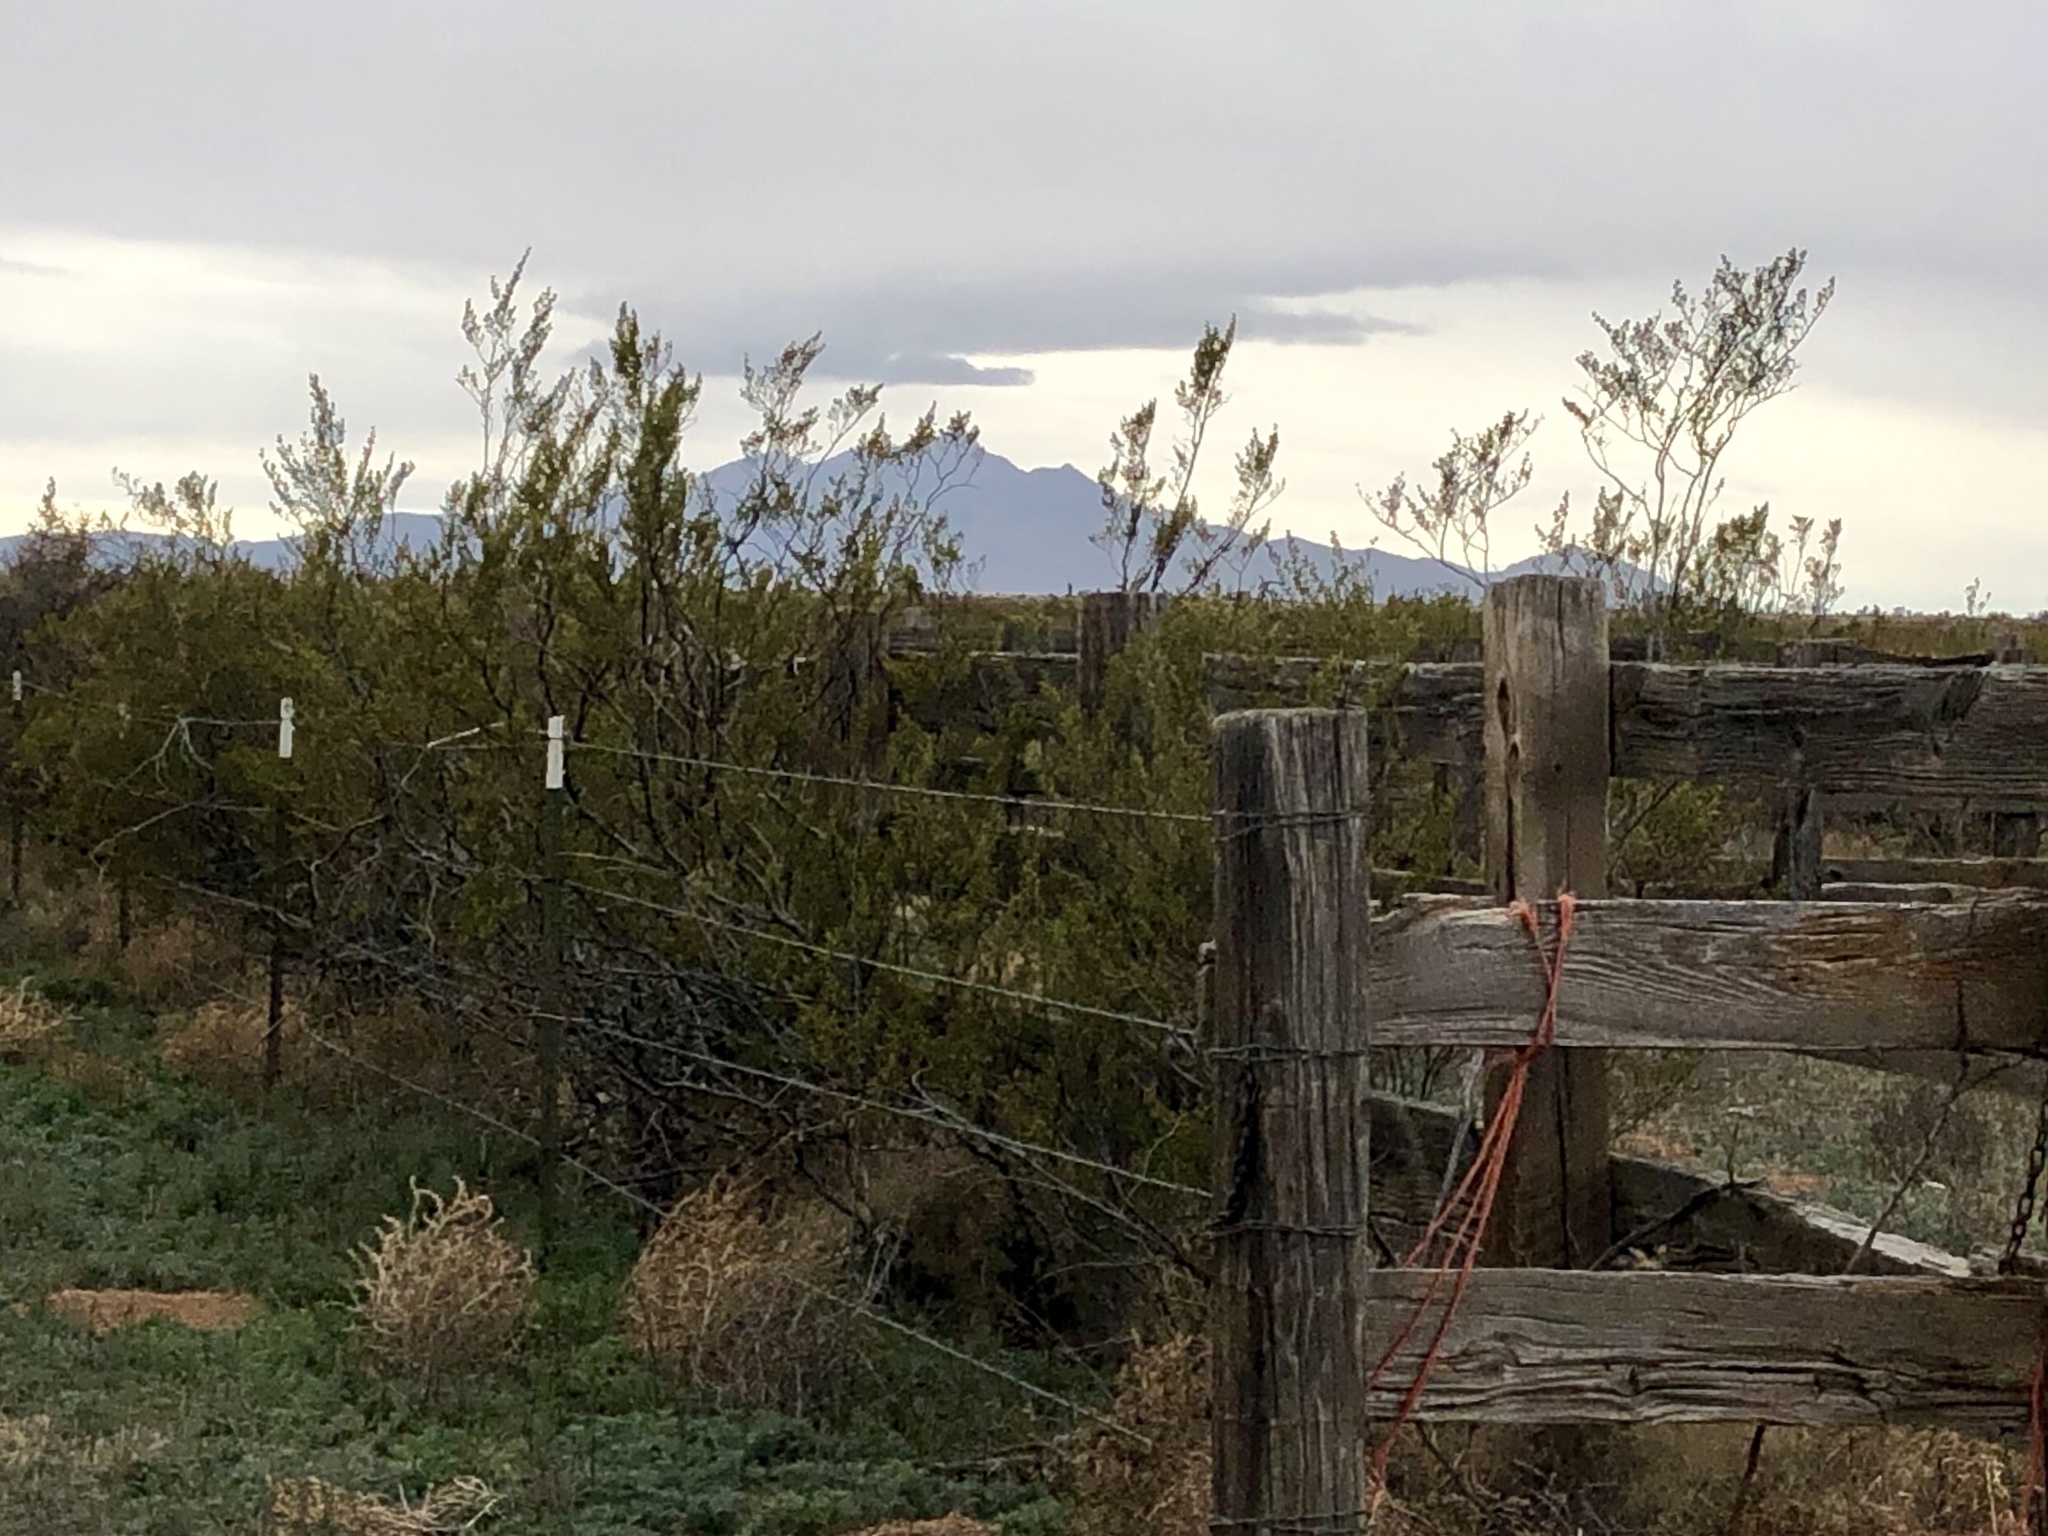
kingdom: Plantae
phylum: Tracheophyta
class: Magnoliopsida
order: Zygophyllales
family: Zygophyllaceae
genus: Larrea
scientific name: Larrea tridentata
